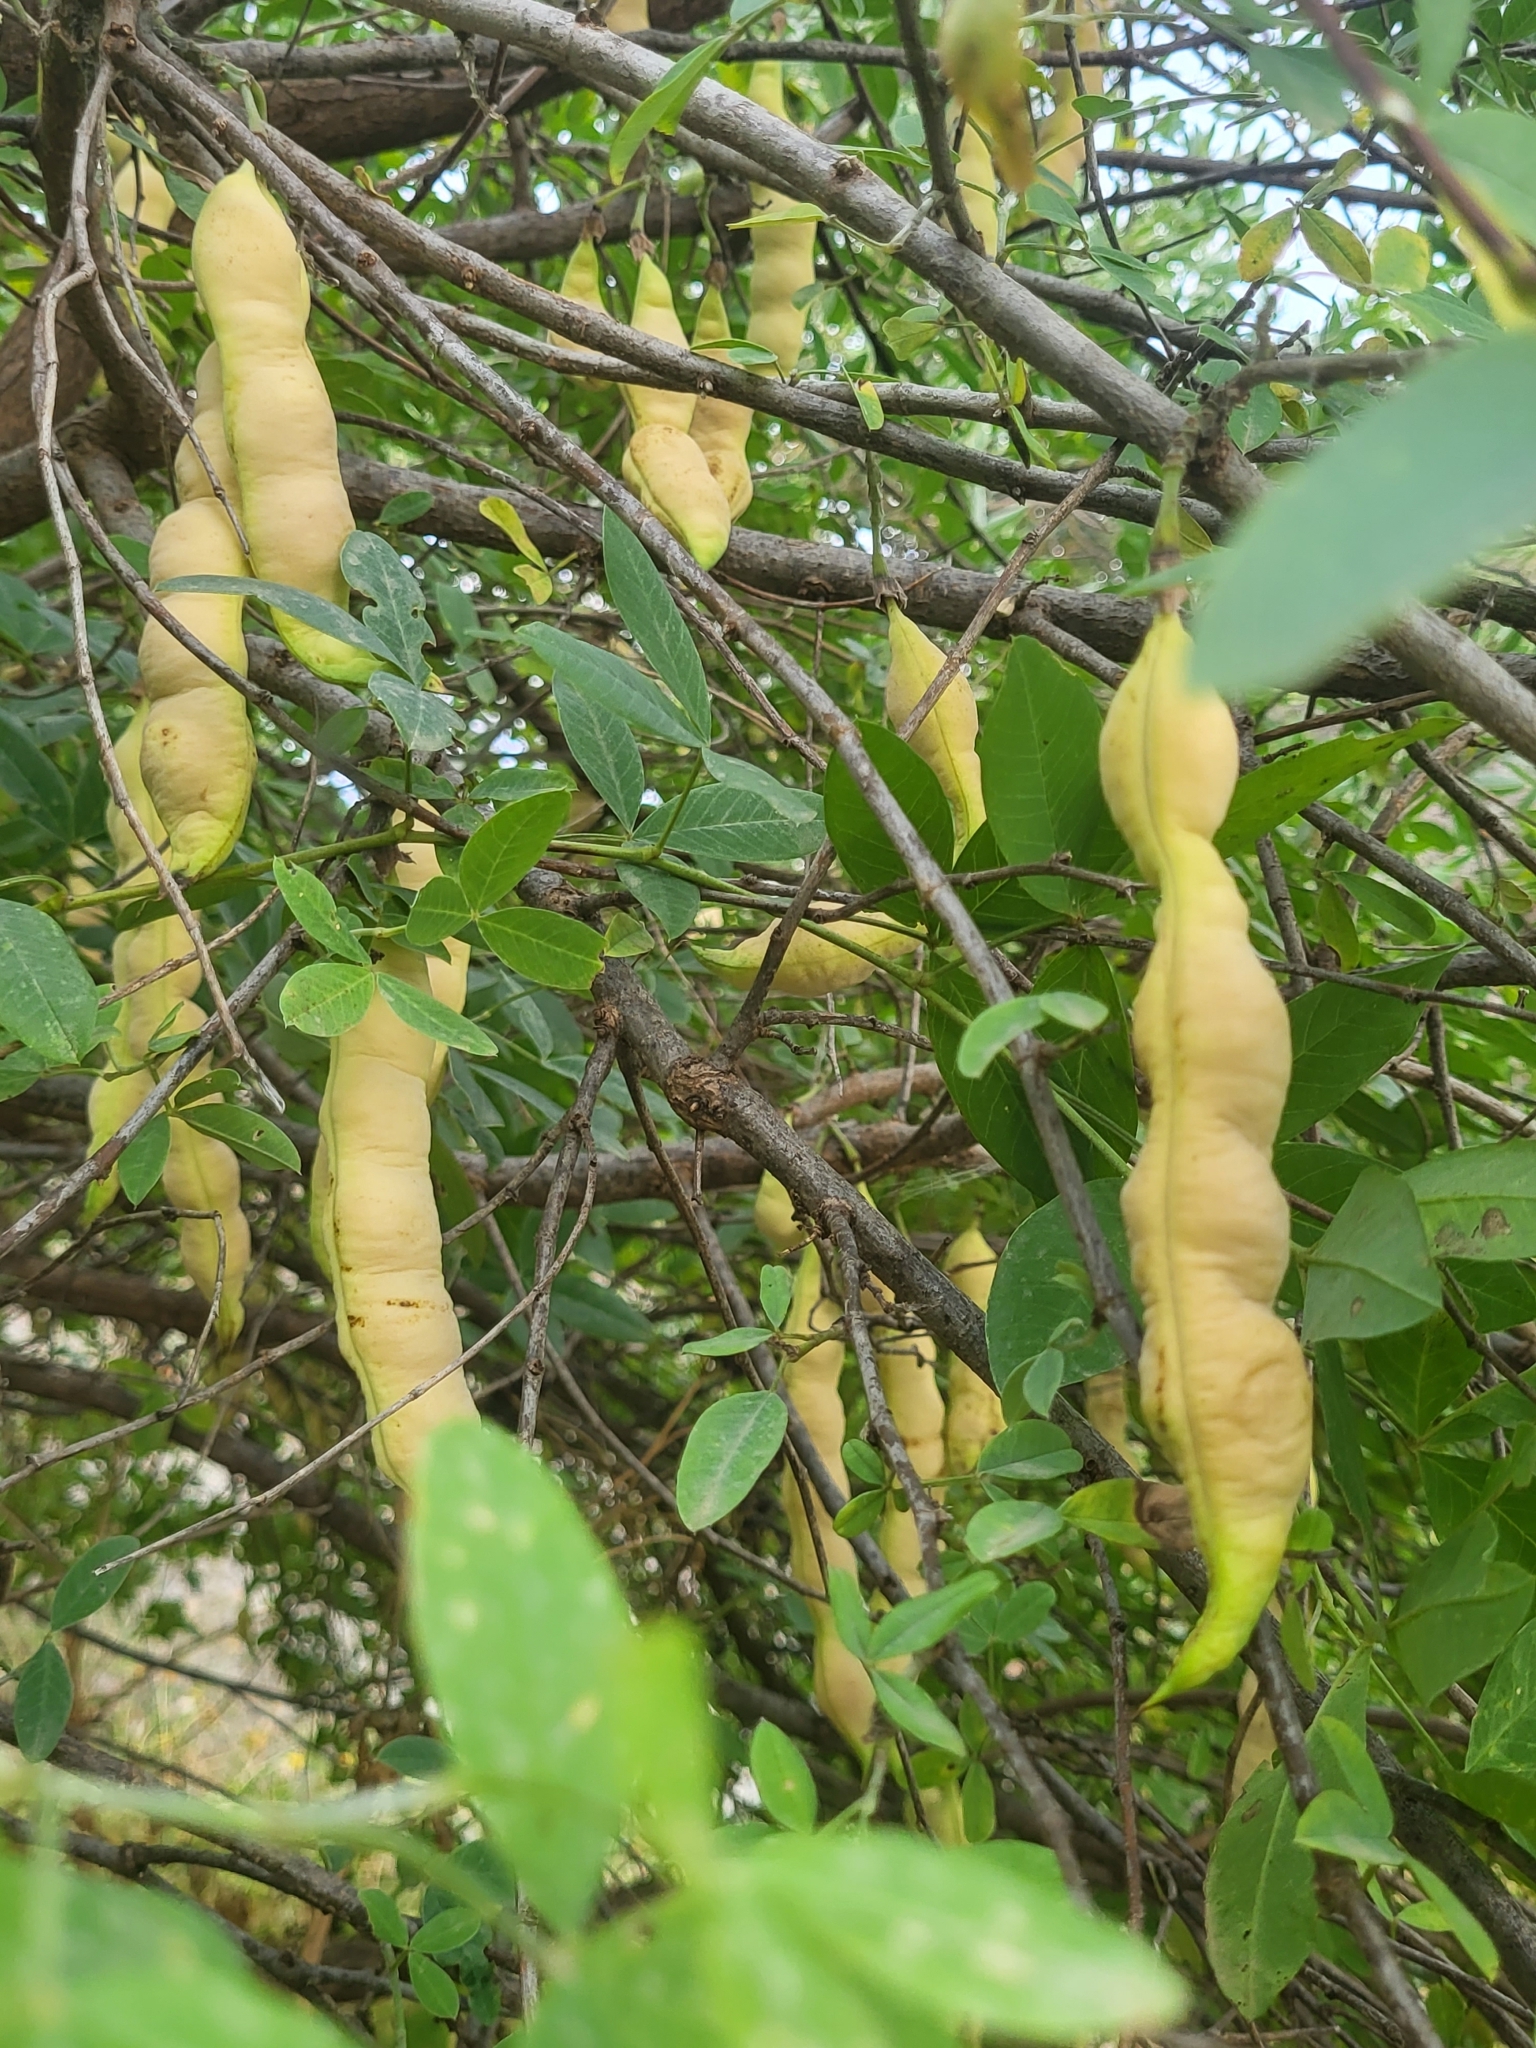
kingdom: Plantae
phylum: Tracheophyta
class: Magnoliopsida
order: Fabales
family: Fabaceae
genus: Anagyris
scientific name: Anagyris foetida
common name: Stinking bean trefoil
